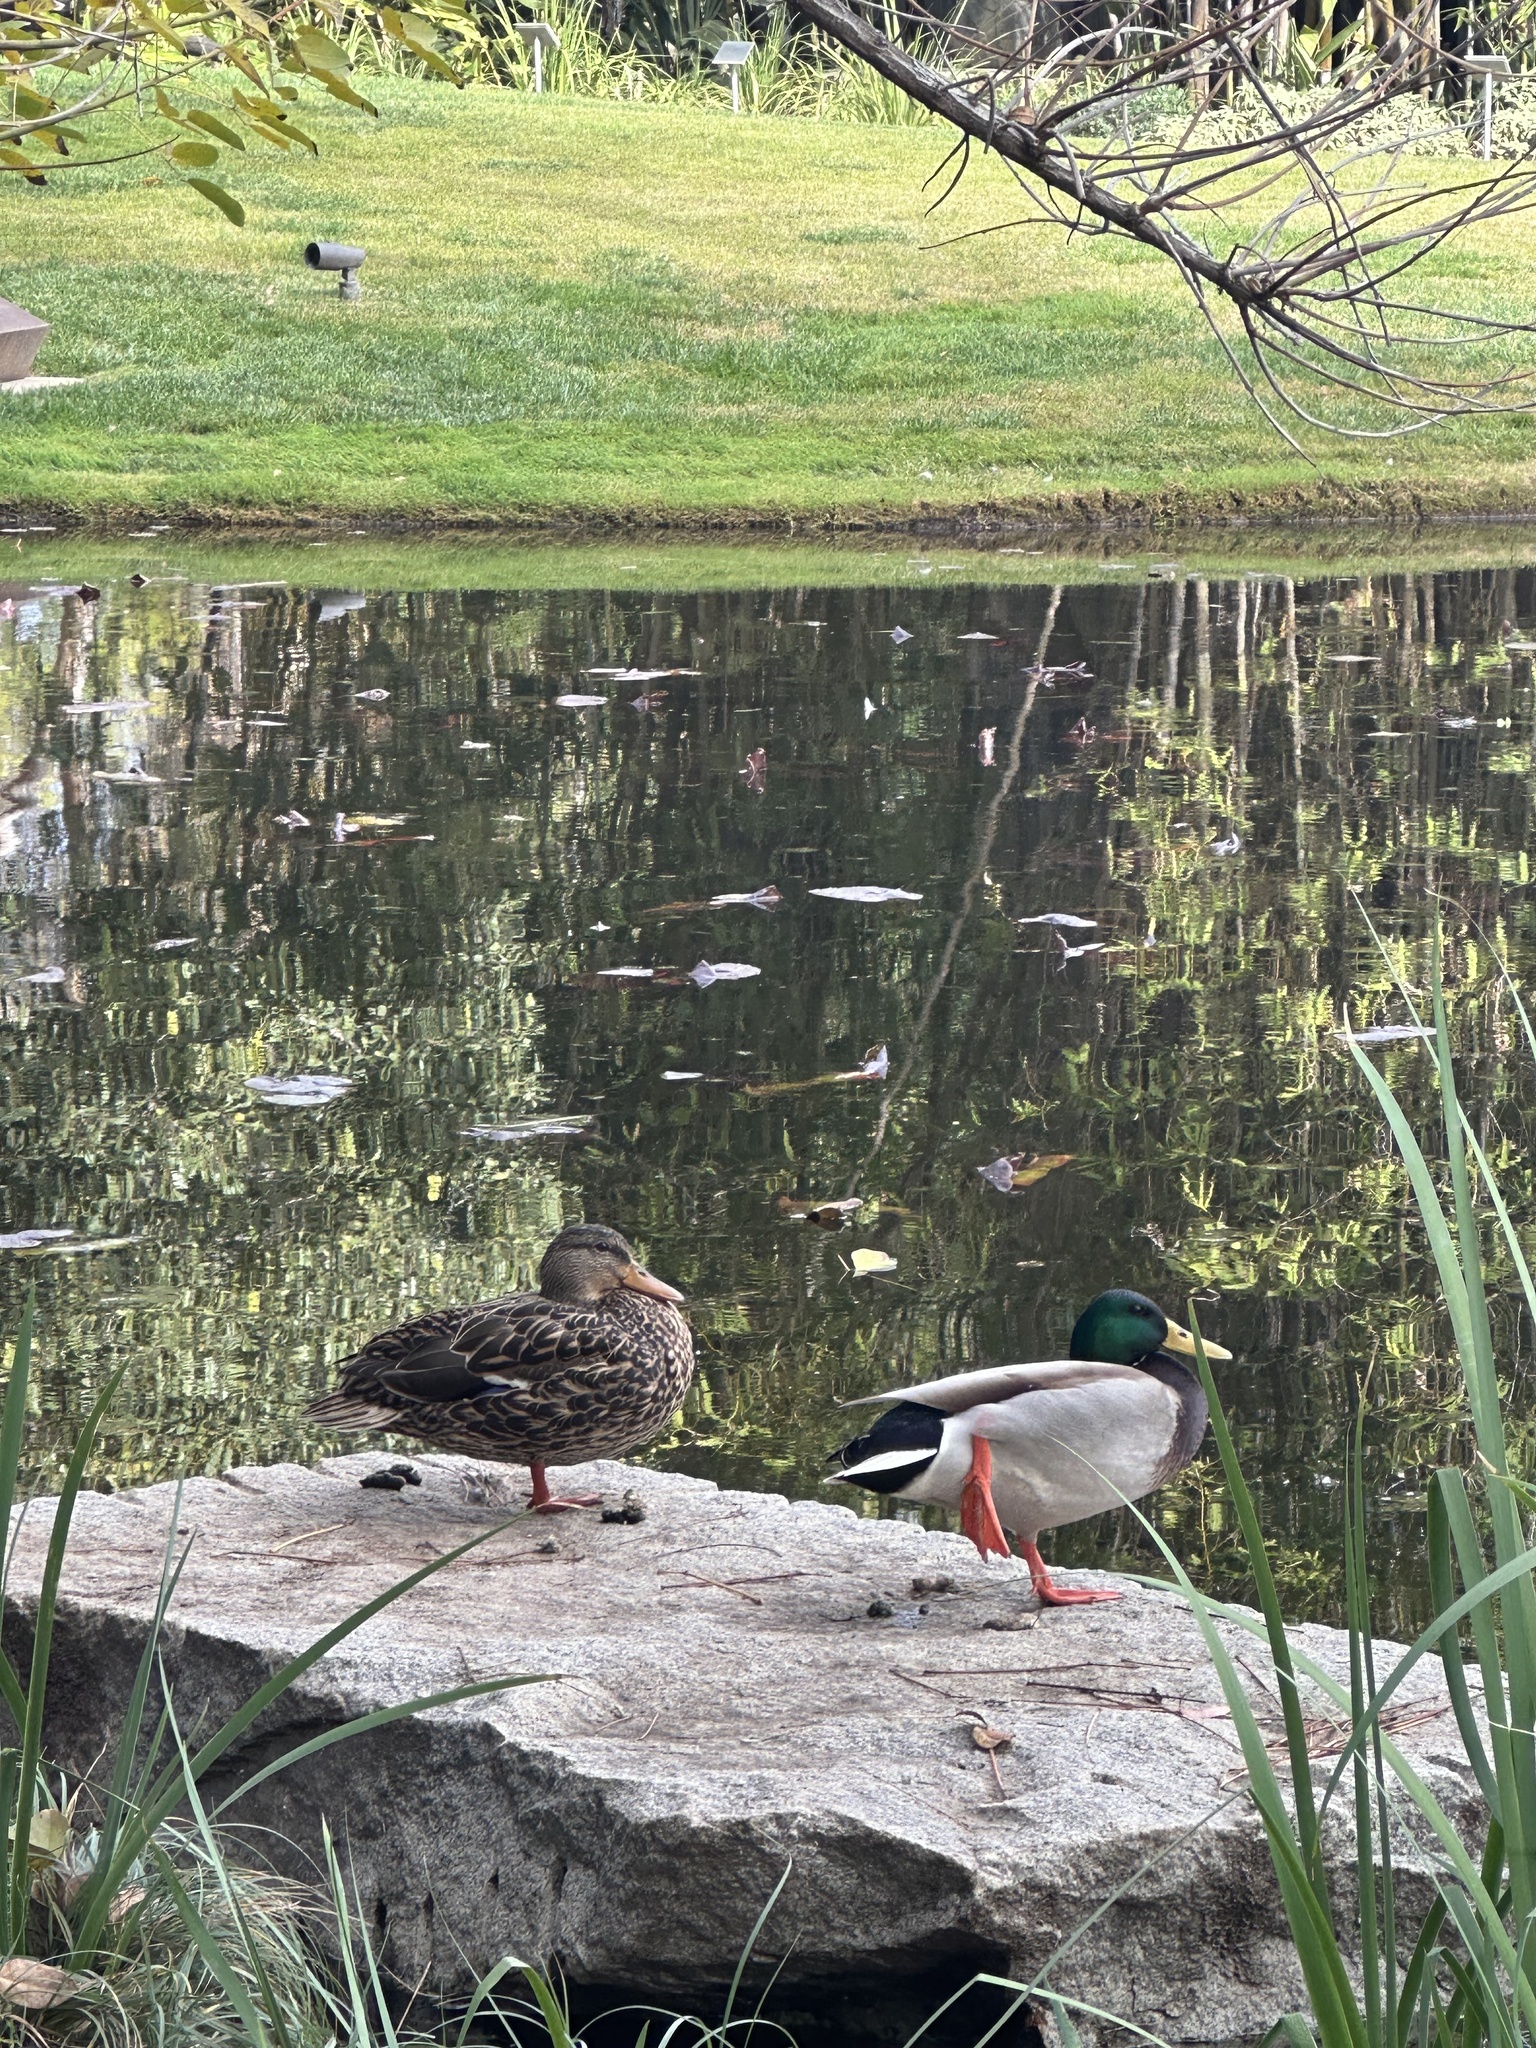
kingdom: Animalia
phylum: Chordata
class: Aves
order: Anseriformes
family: Anatidae
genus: Anas
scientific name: Anas platyrhynchos
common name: Mallard
